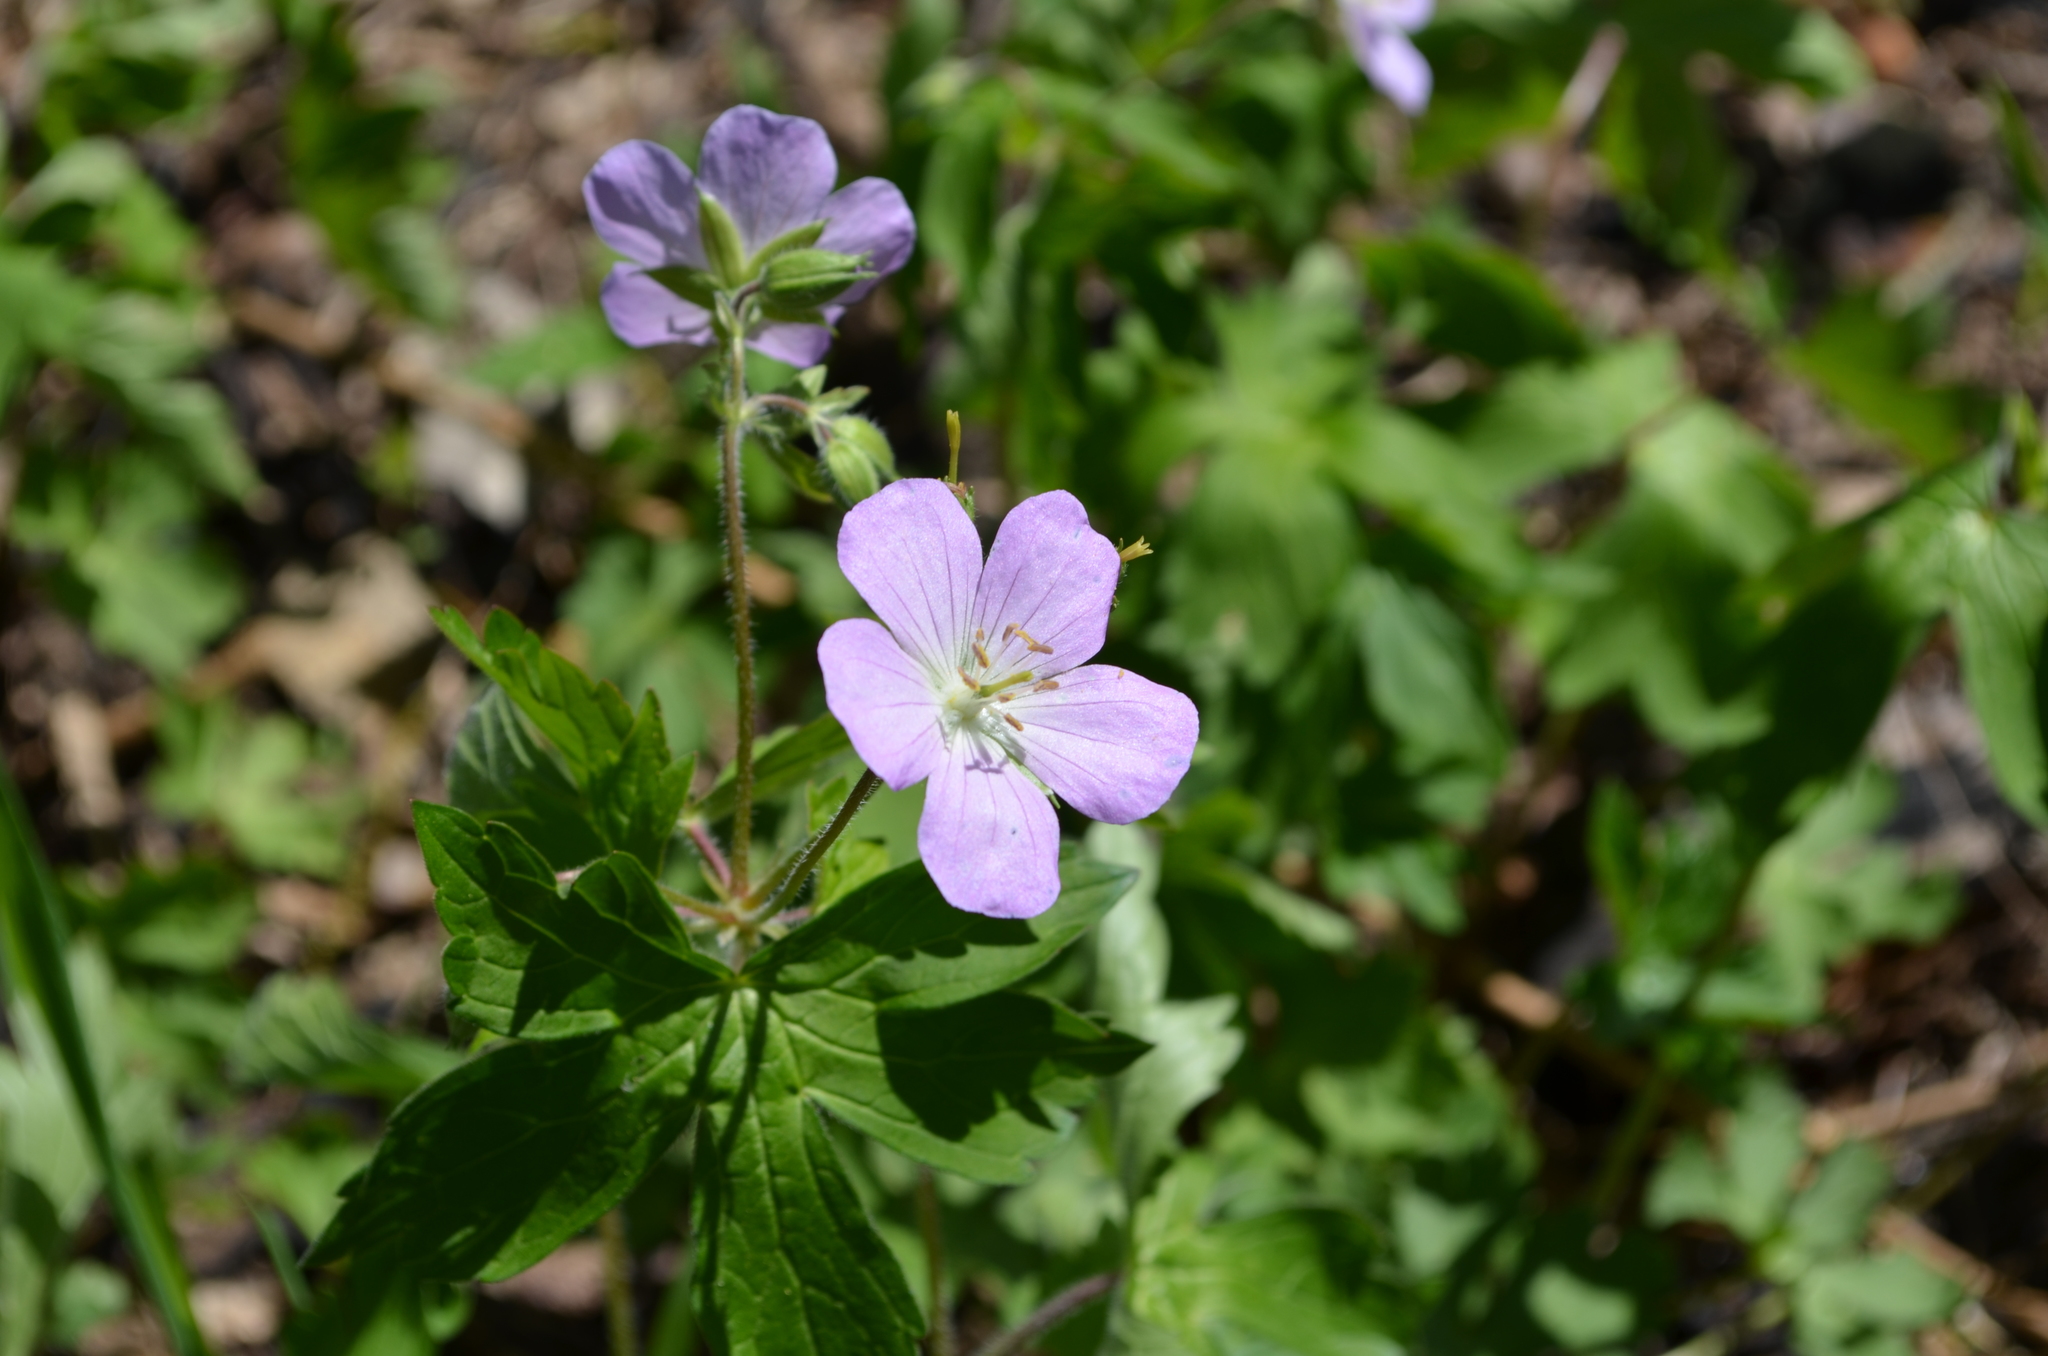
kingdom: Plantae
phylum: Tracheophyta
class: Magnoliopsida
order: Geraniales
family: Geraniaceae
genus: Geranium
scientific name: Geranium maculatum
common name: Spotted geranium
